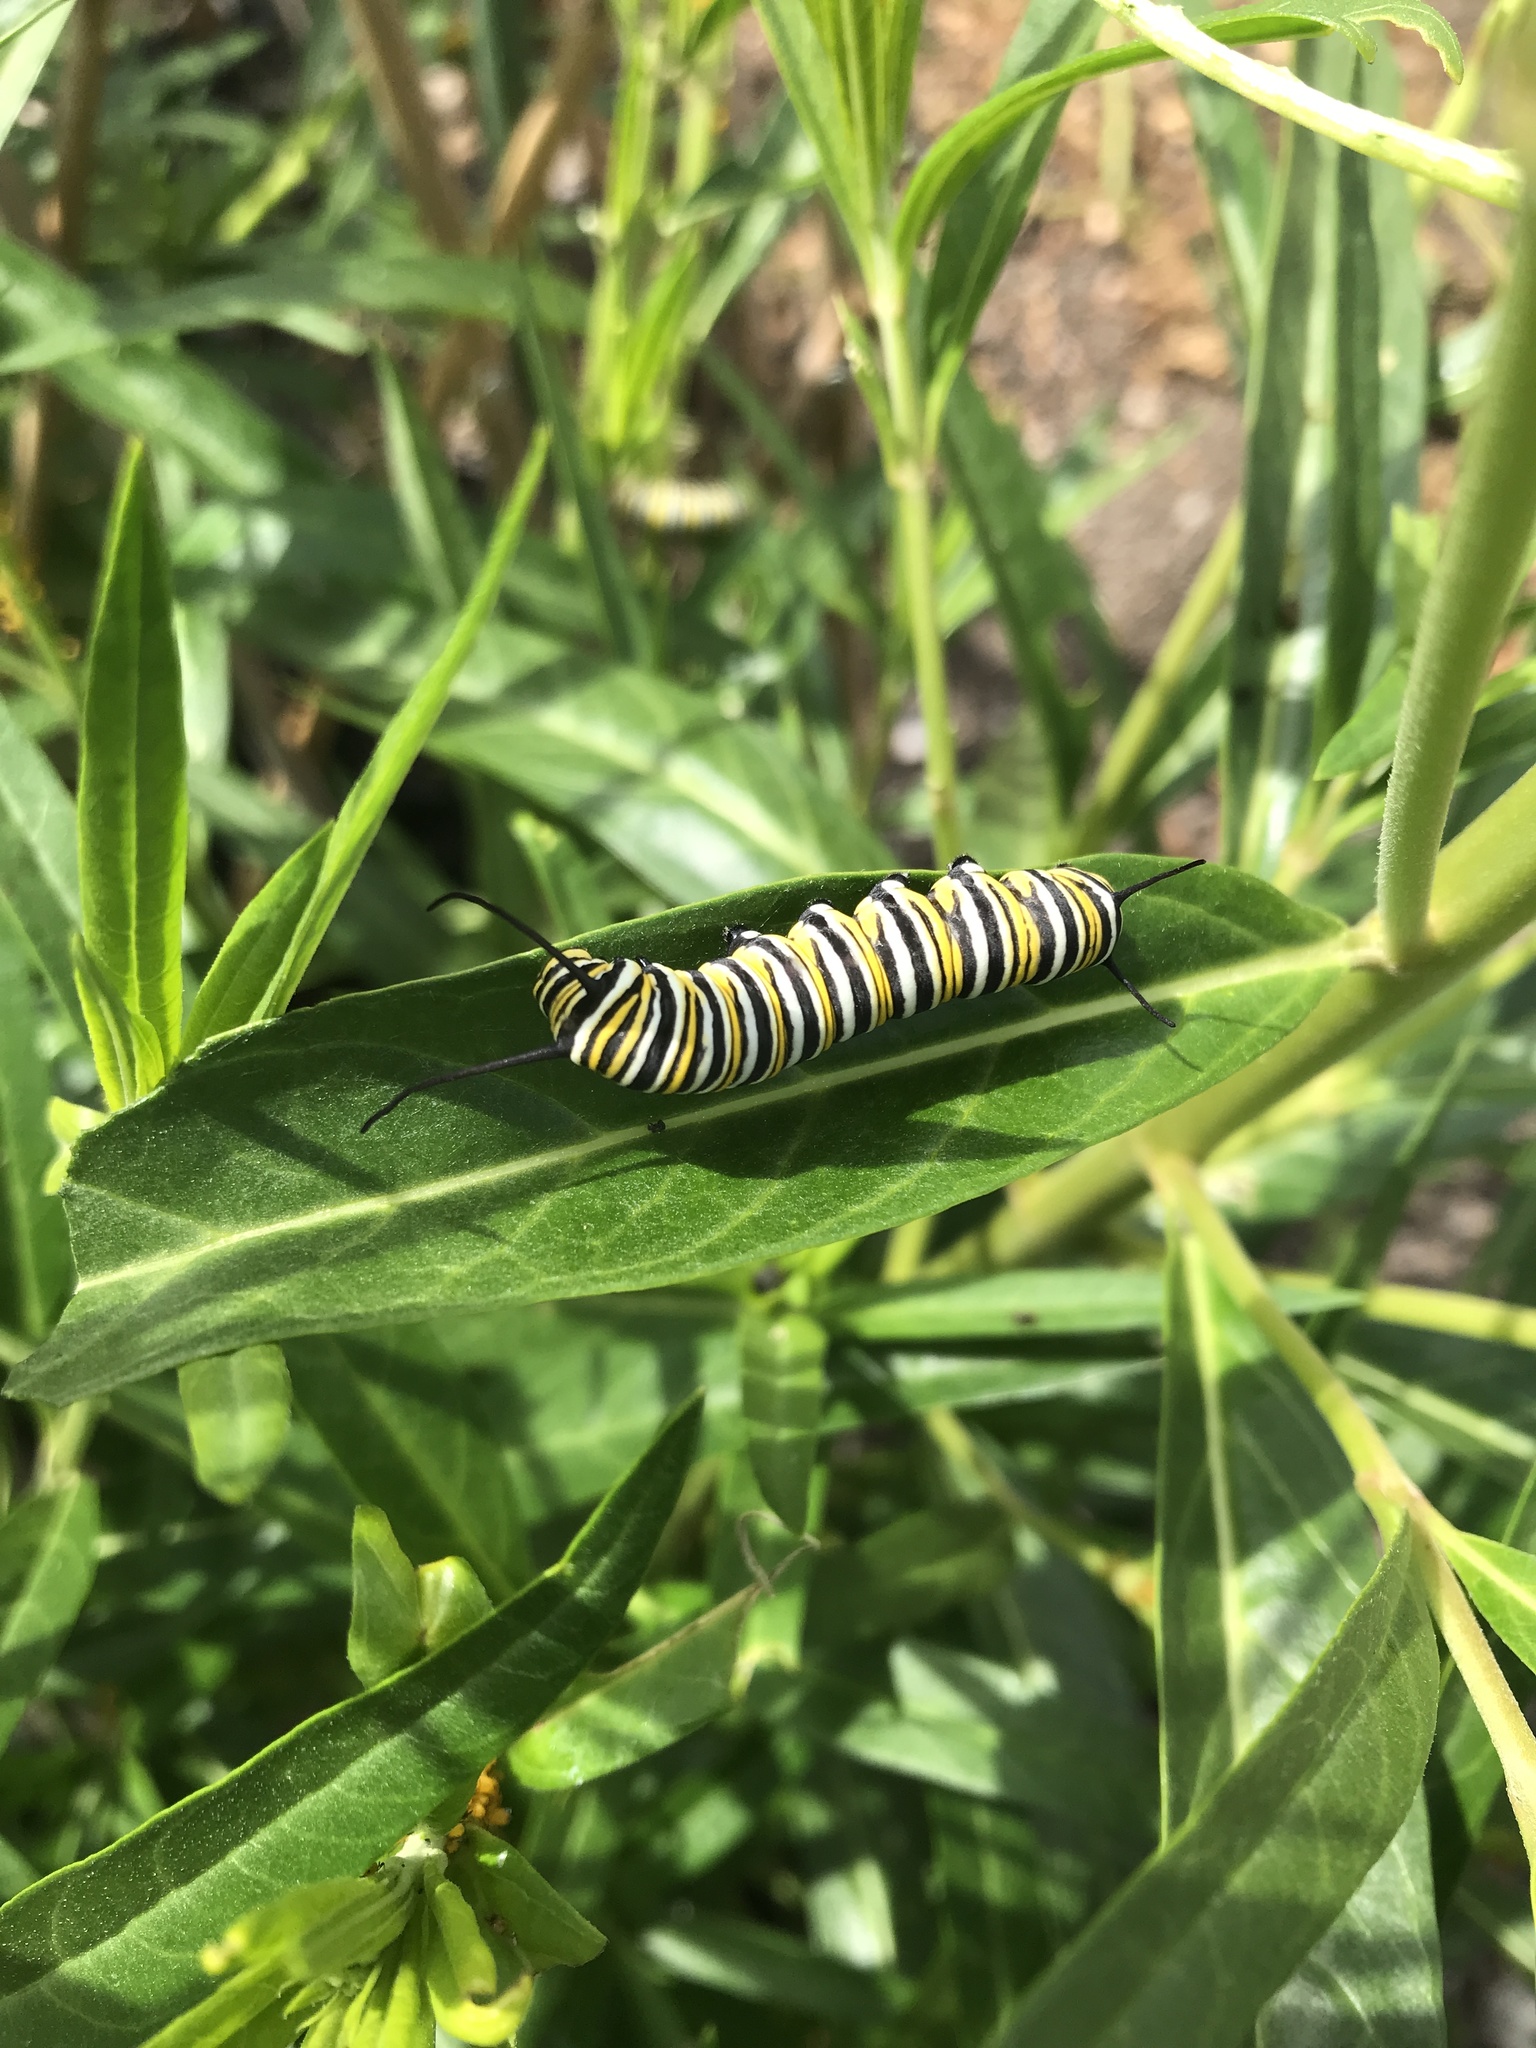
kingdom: Animalia
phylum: Arthropoda
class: Insecta
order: Lepidoptera
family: Nymphalidae
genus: Danaus
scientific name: Danaus plexippus
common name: Monarch
